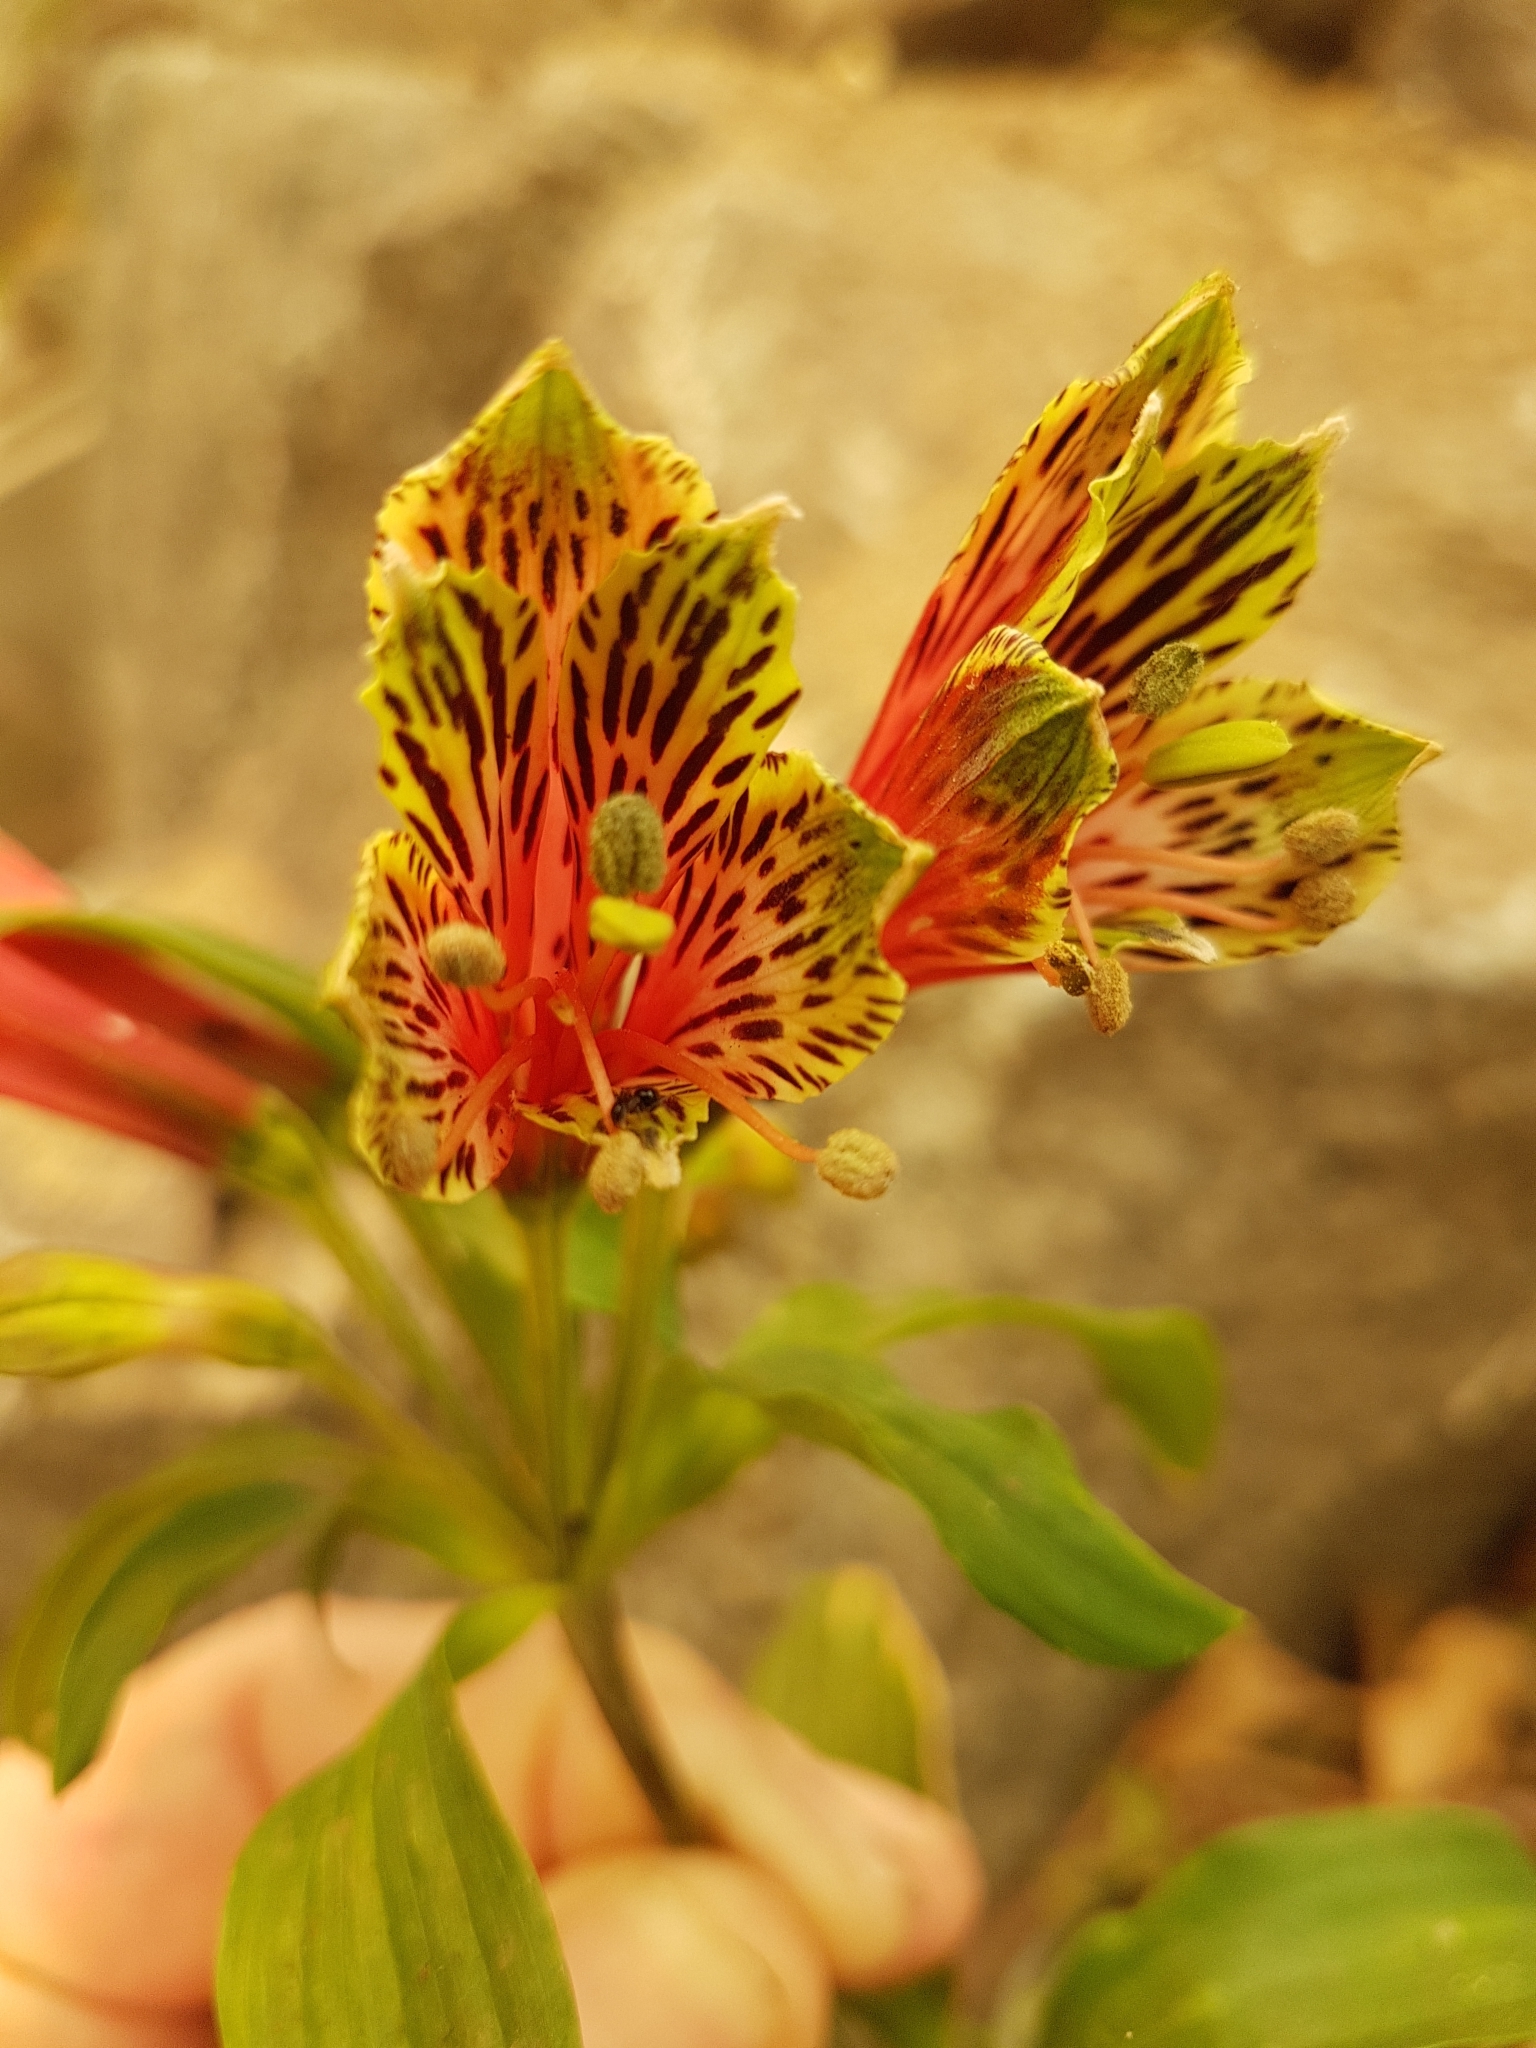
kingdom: Plantae
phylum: Tracheophyta
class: Liliopsida
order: Liliales
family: Alstroemeriaceae
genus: Alstroemeria
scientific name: Alstroemeria psittacina
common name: Peruvian-lily
